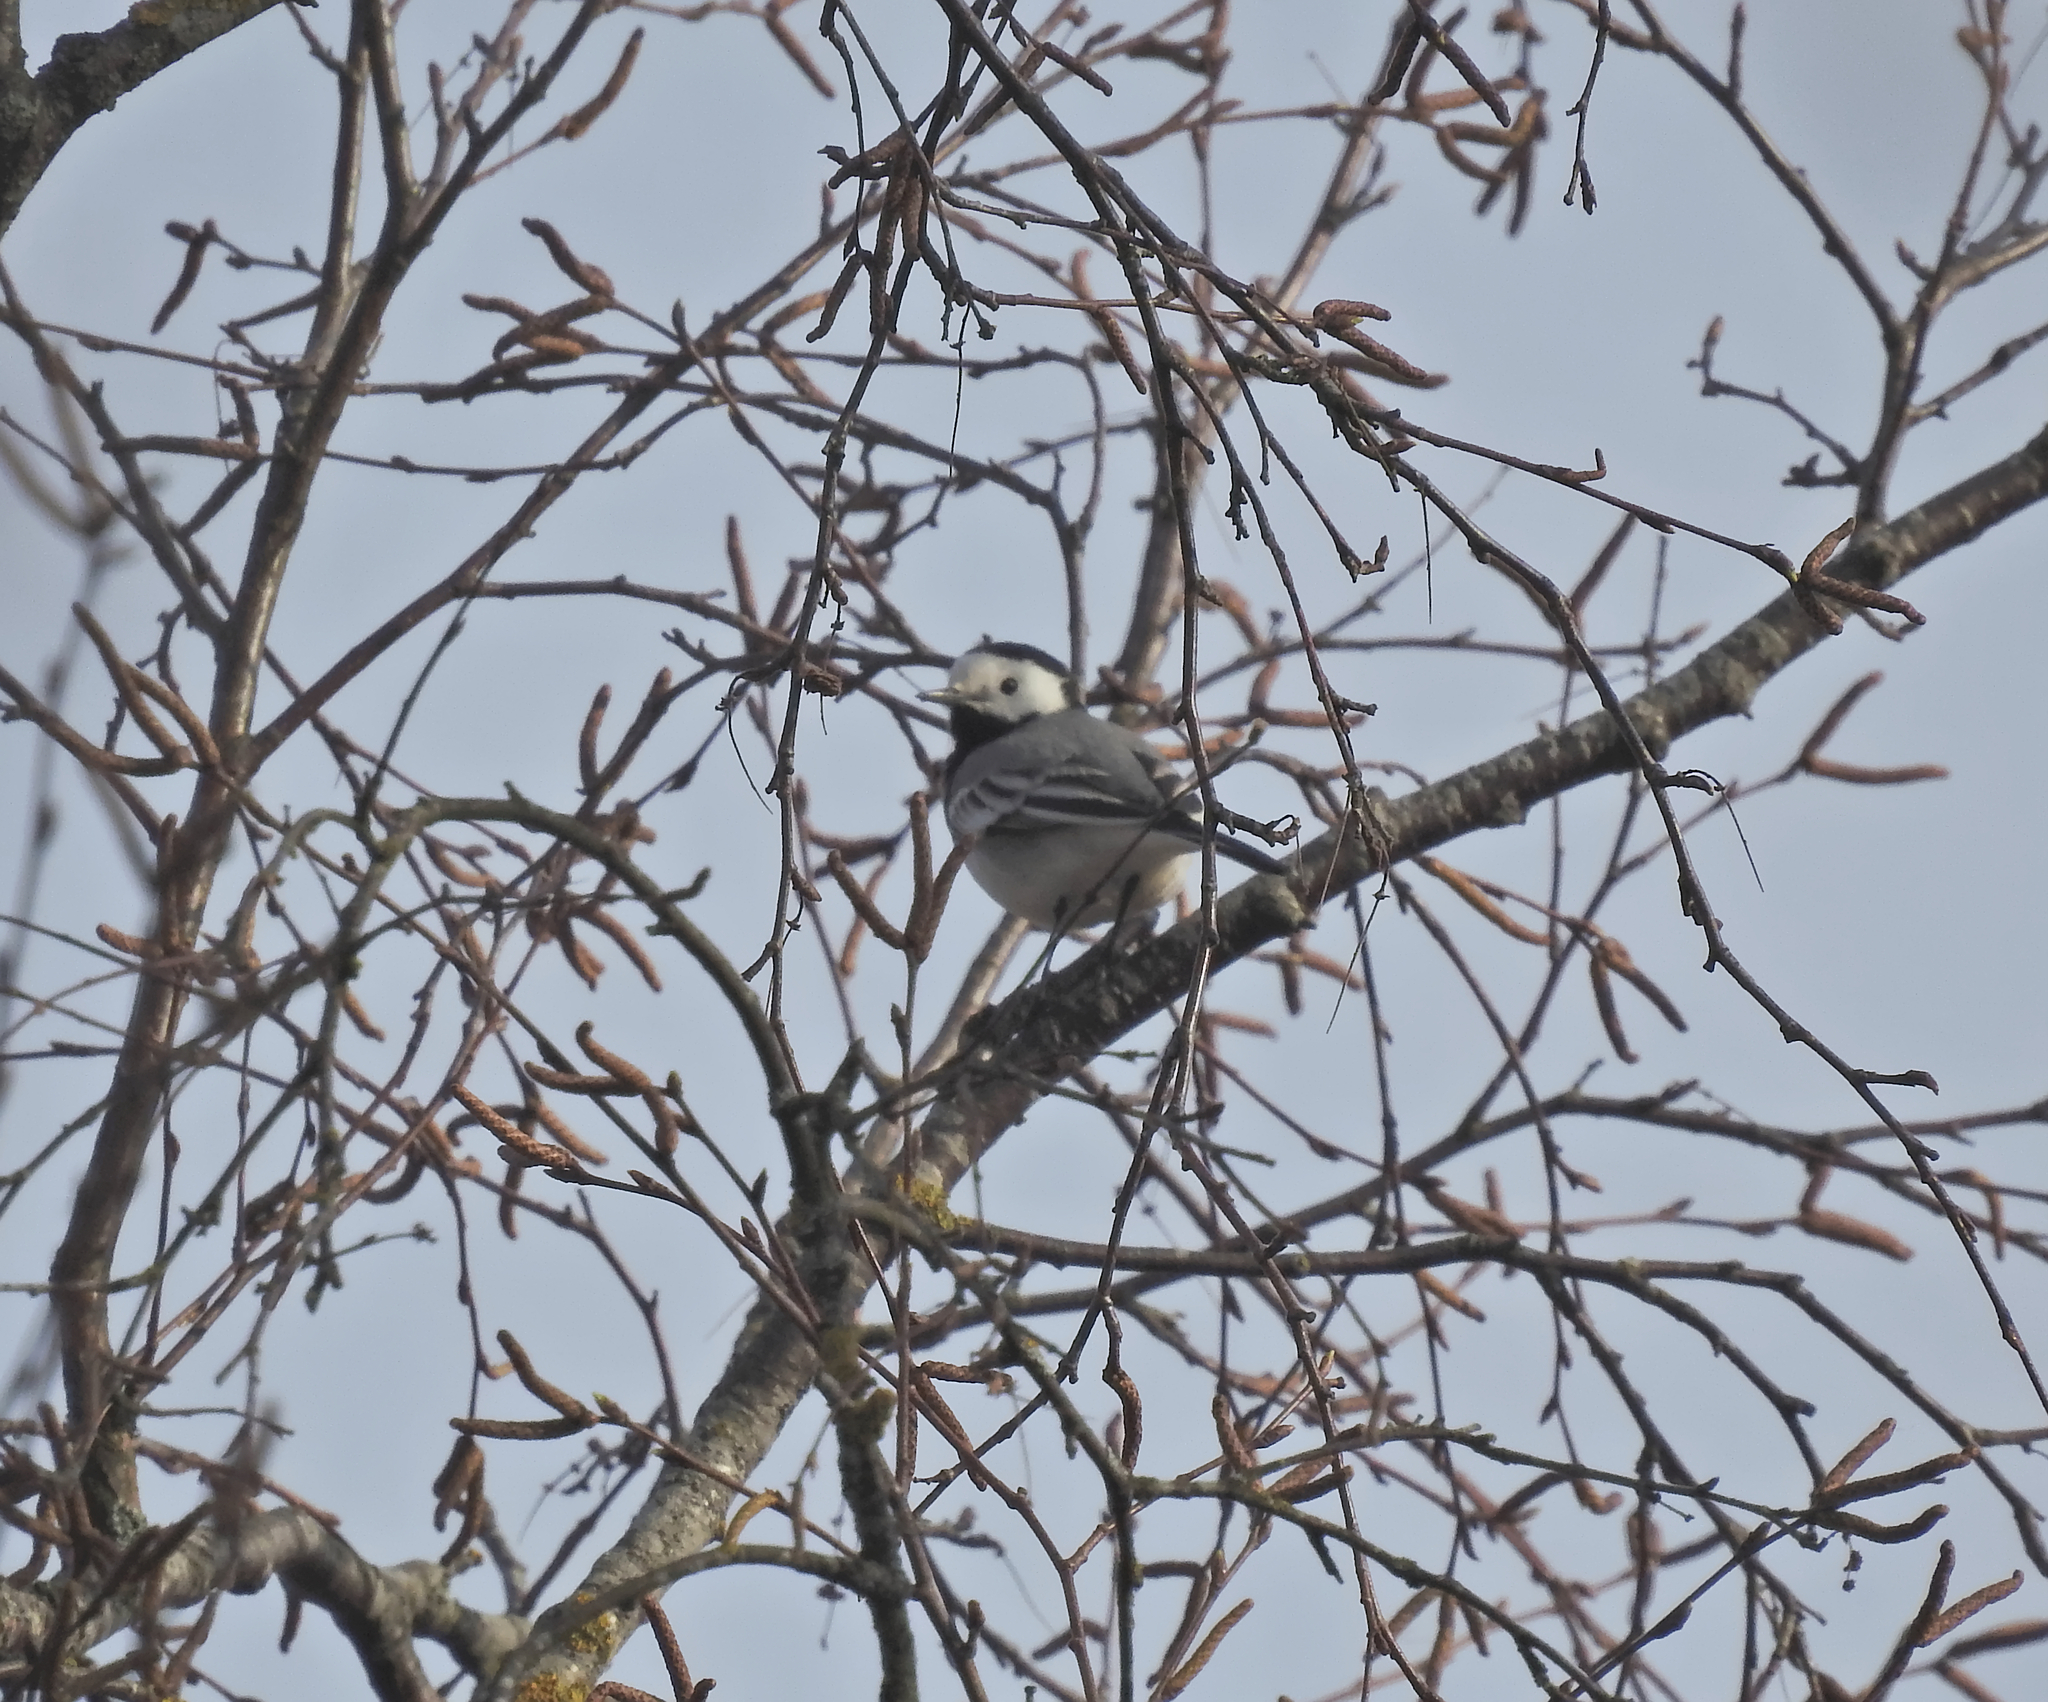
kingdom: Animalia
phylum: Chordata
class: Aves
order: Passeriformes
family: Motacillidae
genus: Motacilla
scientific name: Motacilla alba
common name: White wagtail
